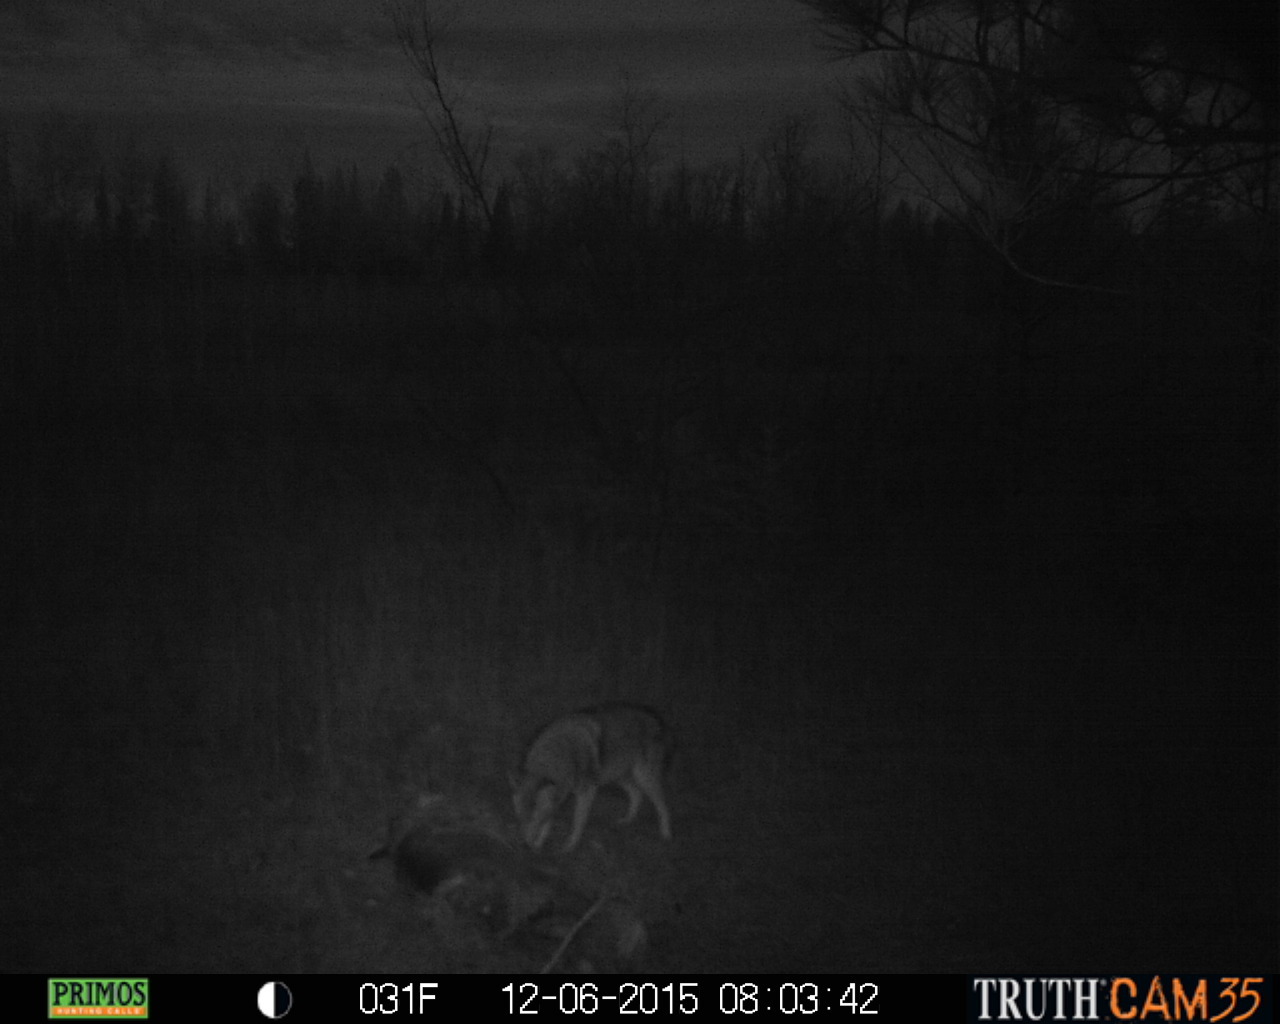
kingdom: Animalia
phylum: Chordata
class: Mammalia
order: Carnivora
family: Canidae
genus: Canis
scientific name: Canis latrans
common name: Coyote
